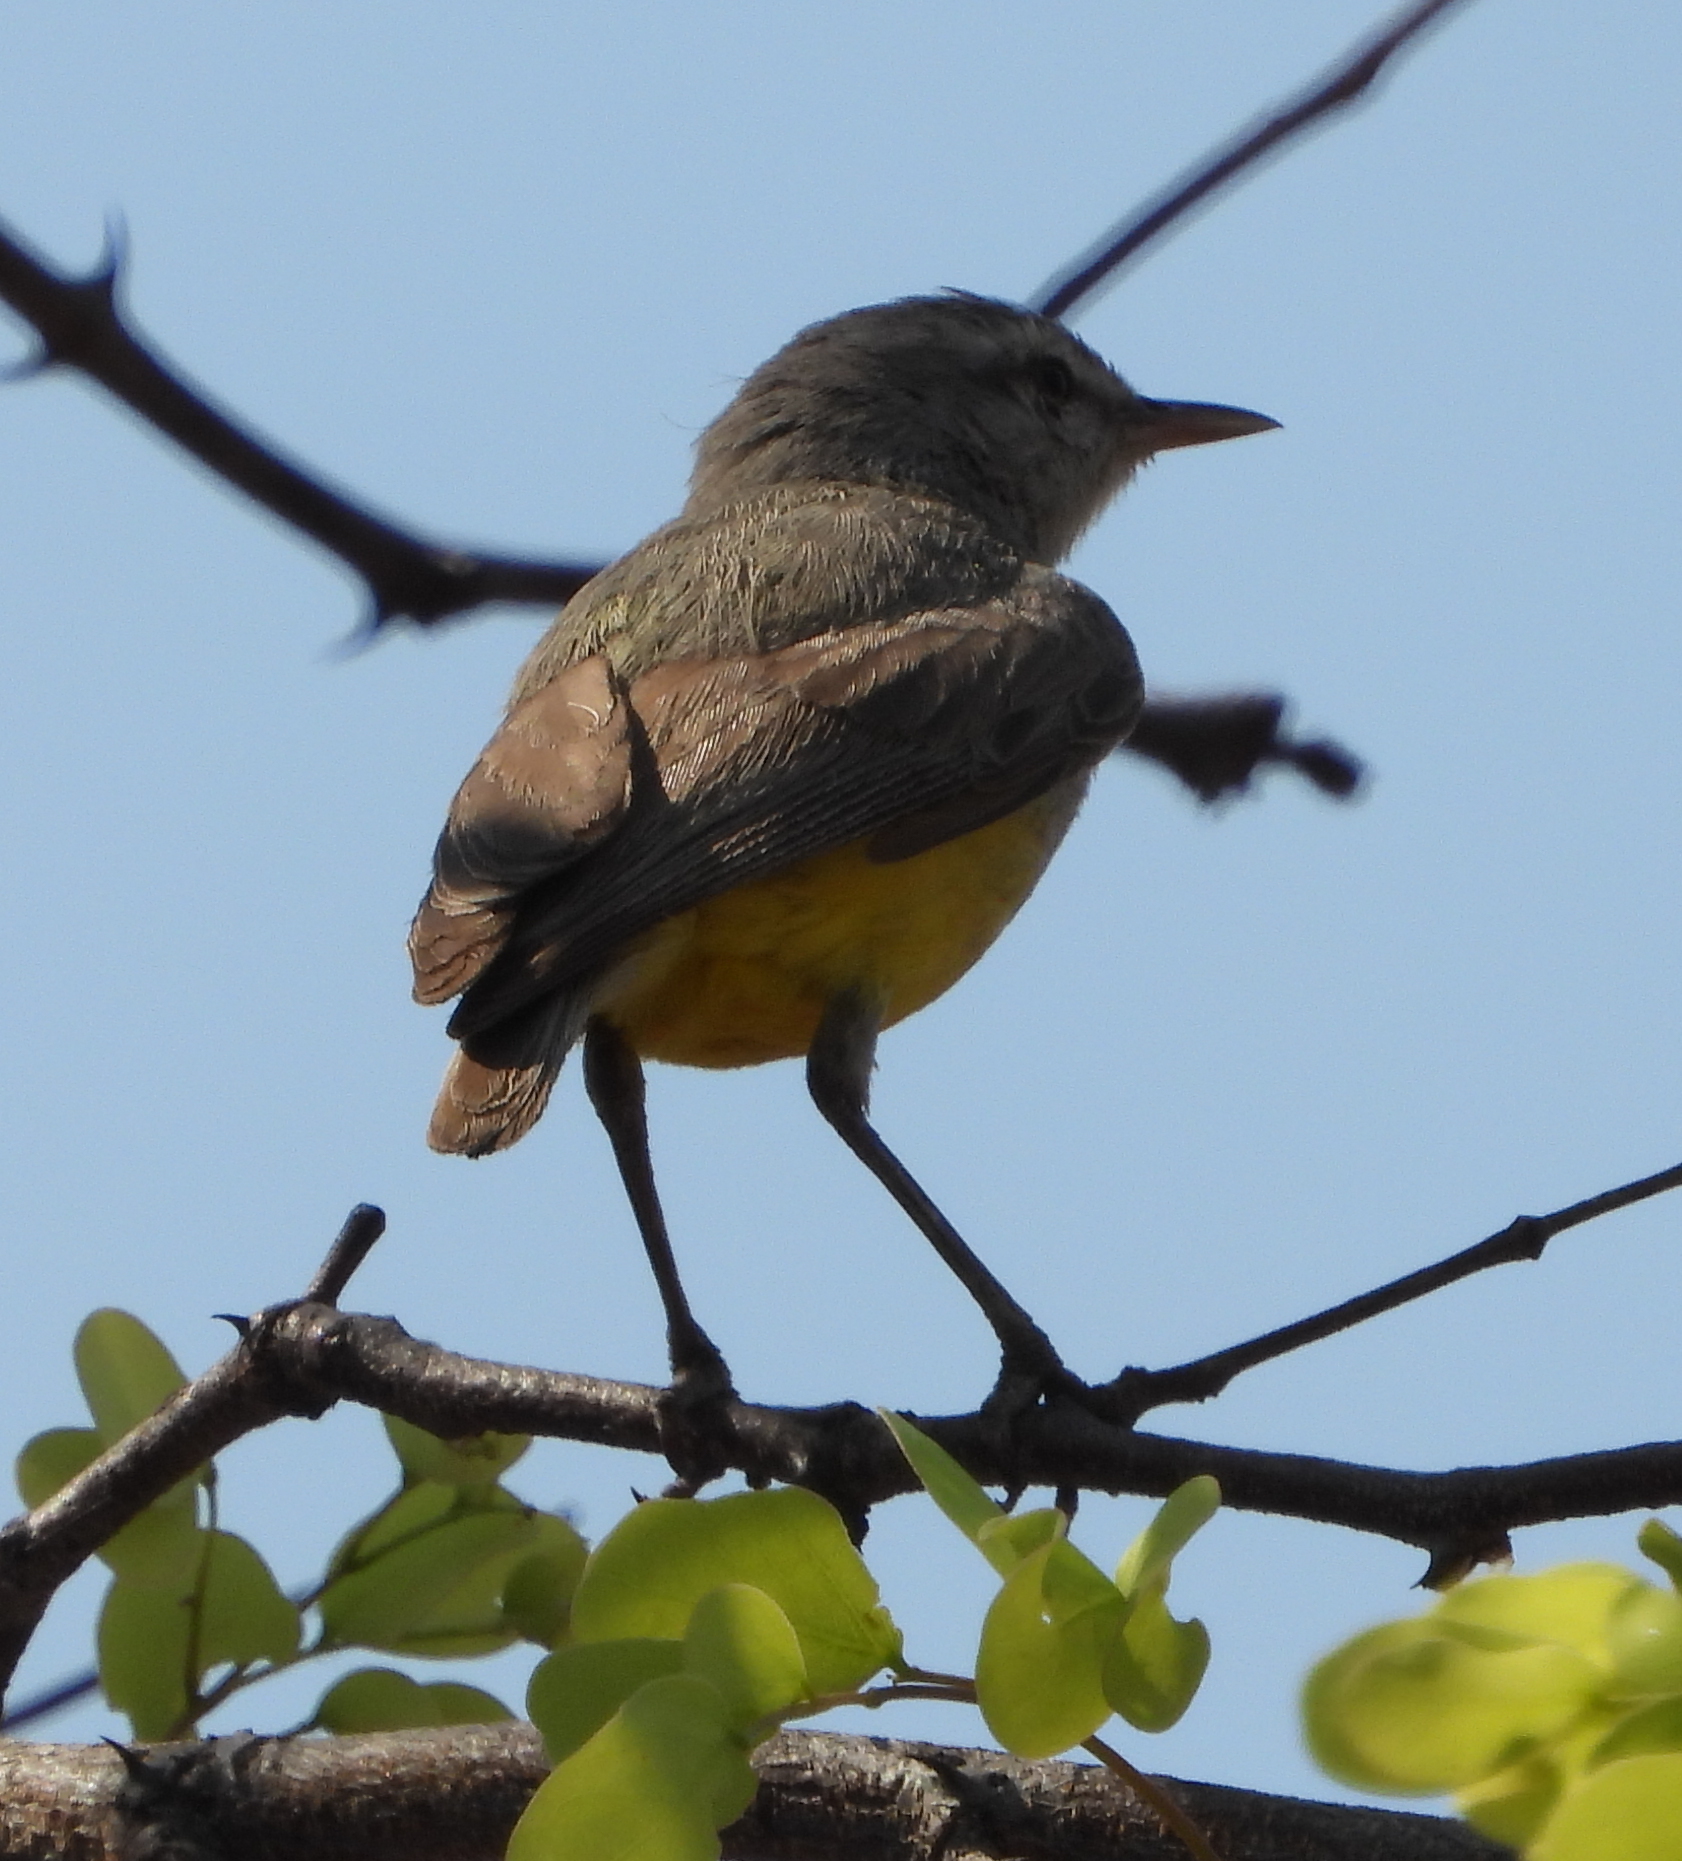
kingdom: Animalia
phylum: Chordata
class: Aves
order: Passeriformes
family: Cisticolidae
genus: Eremomela
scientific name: Eremomela icteropygialis
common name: Yellow-bellied eremomela
